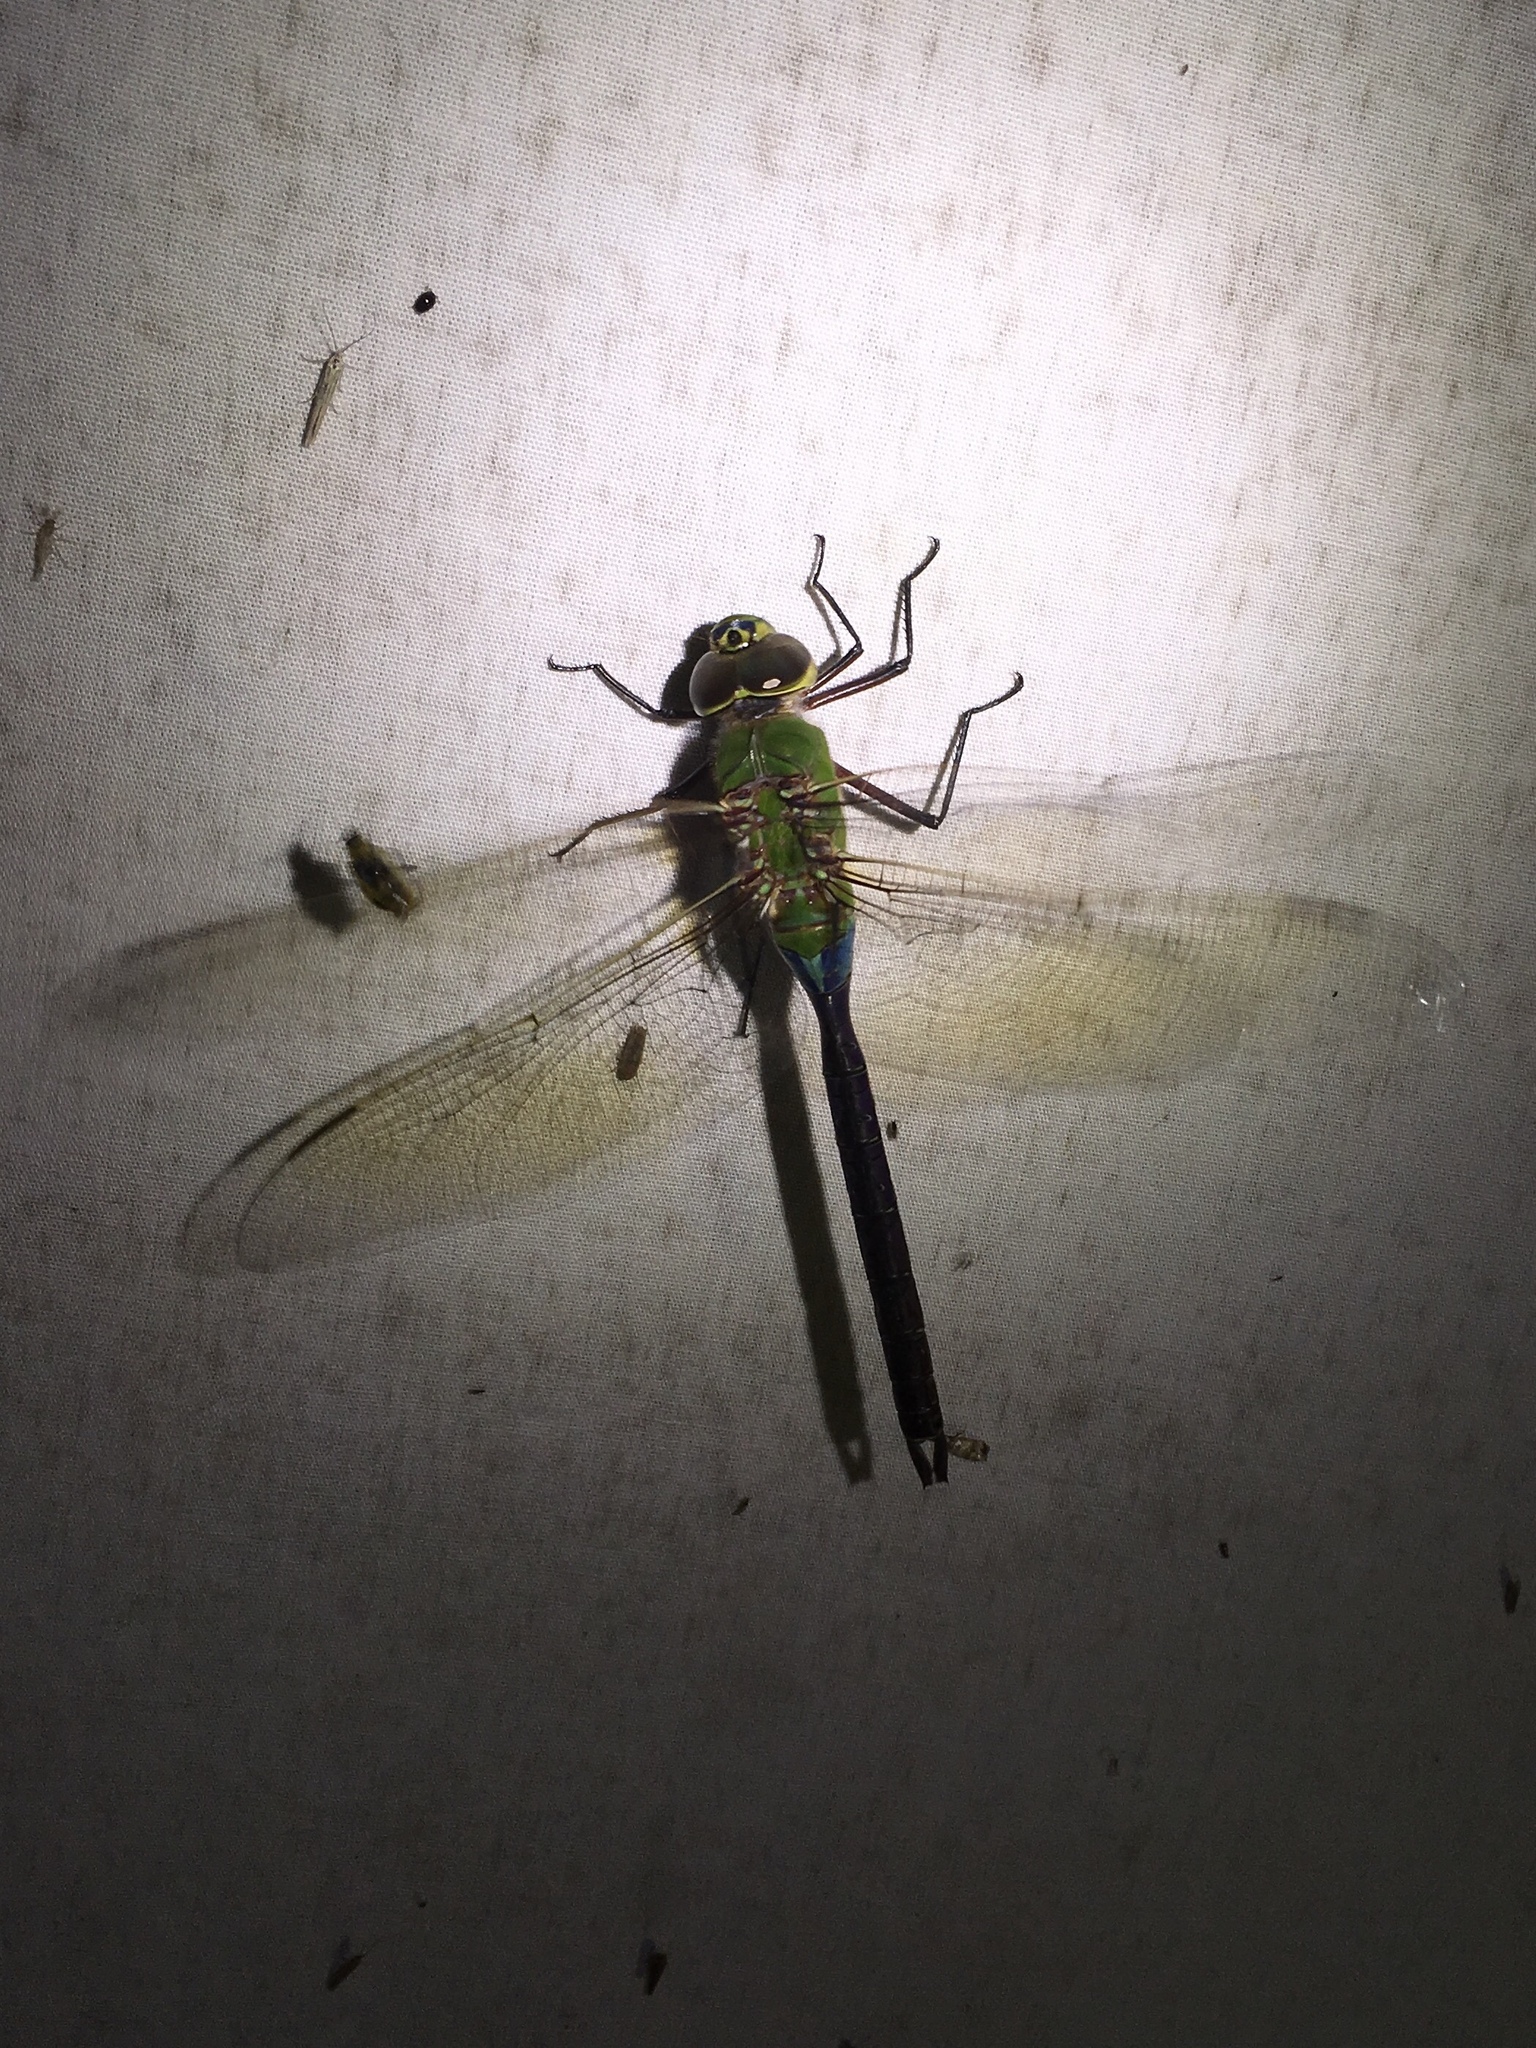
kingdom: Animalia
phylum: Arthropoda
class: Insecta
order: Odonata
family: Aeshnidae
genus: Anax
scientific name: Anax junius
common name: Common green darner
